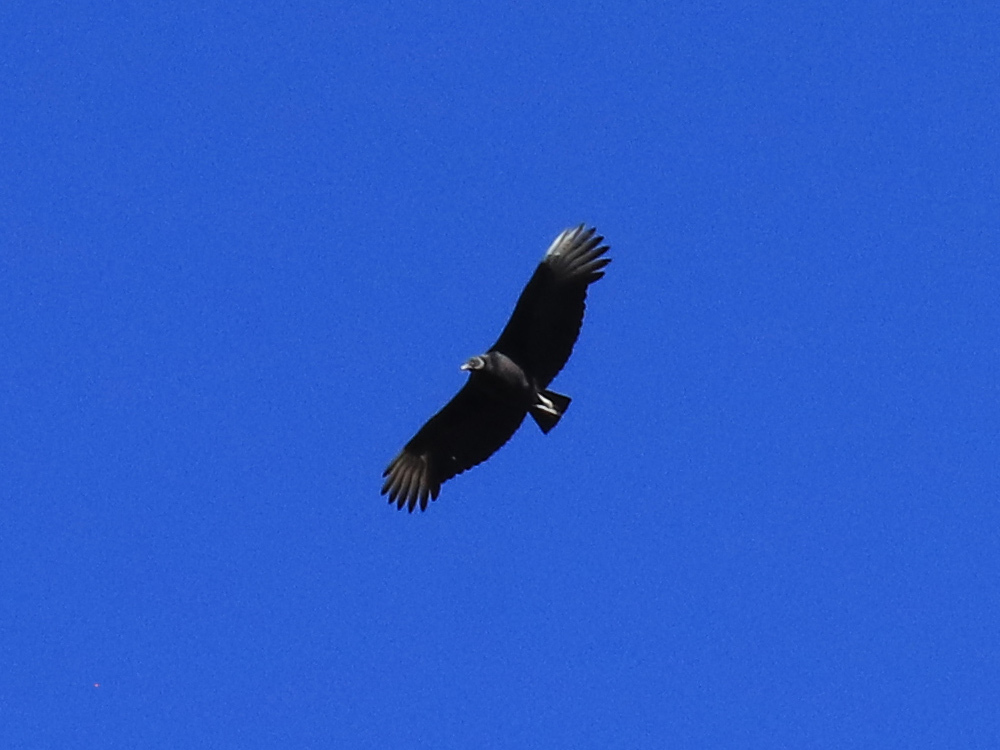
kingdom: Animalia
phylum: Chordata
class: Aves
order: Accipitriformes
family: Cathartidae
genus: Coragyps
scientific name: Coragyps atratus
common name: Black vulture
